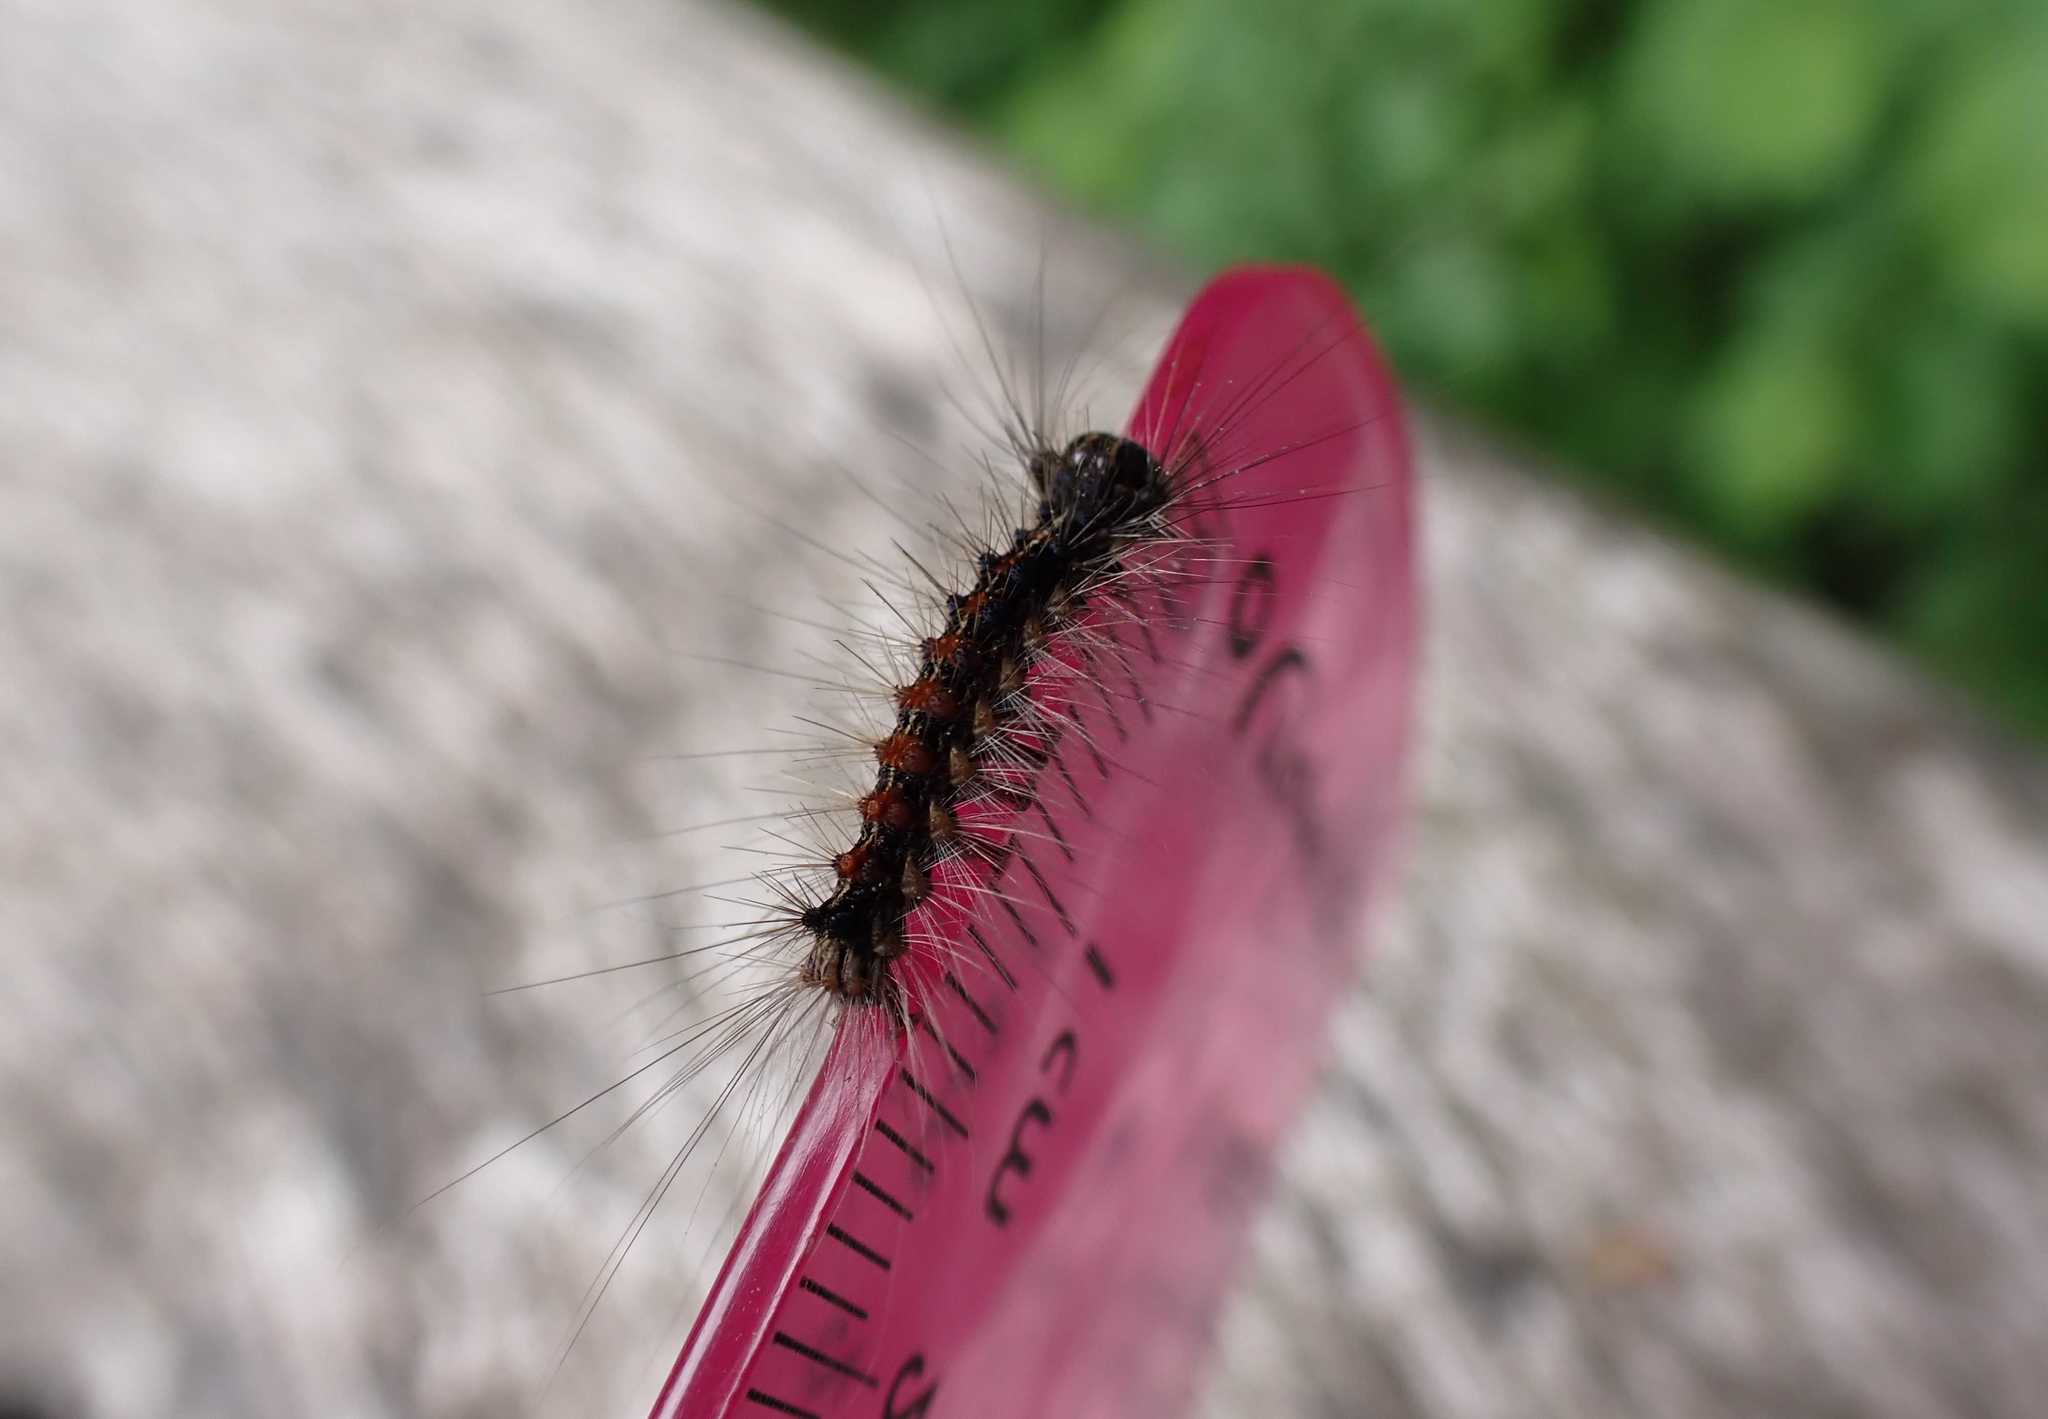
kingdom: Animalia
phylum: Arthropoda
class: Insecta
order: Lepidoptera
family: Erebidae
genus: Lymantria
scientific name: Lymantria dispar
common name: Gypsy moth
